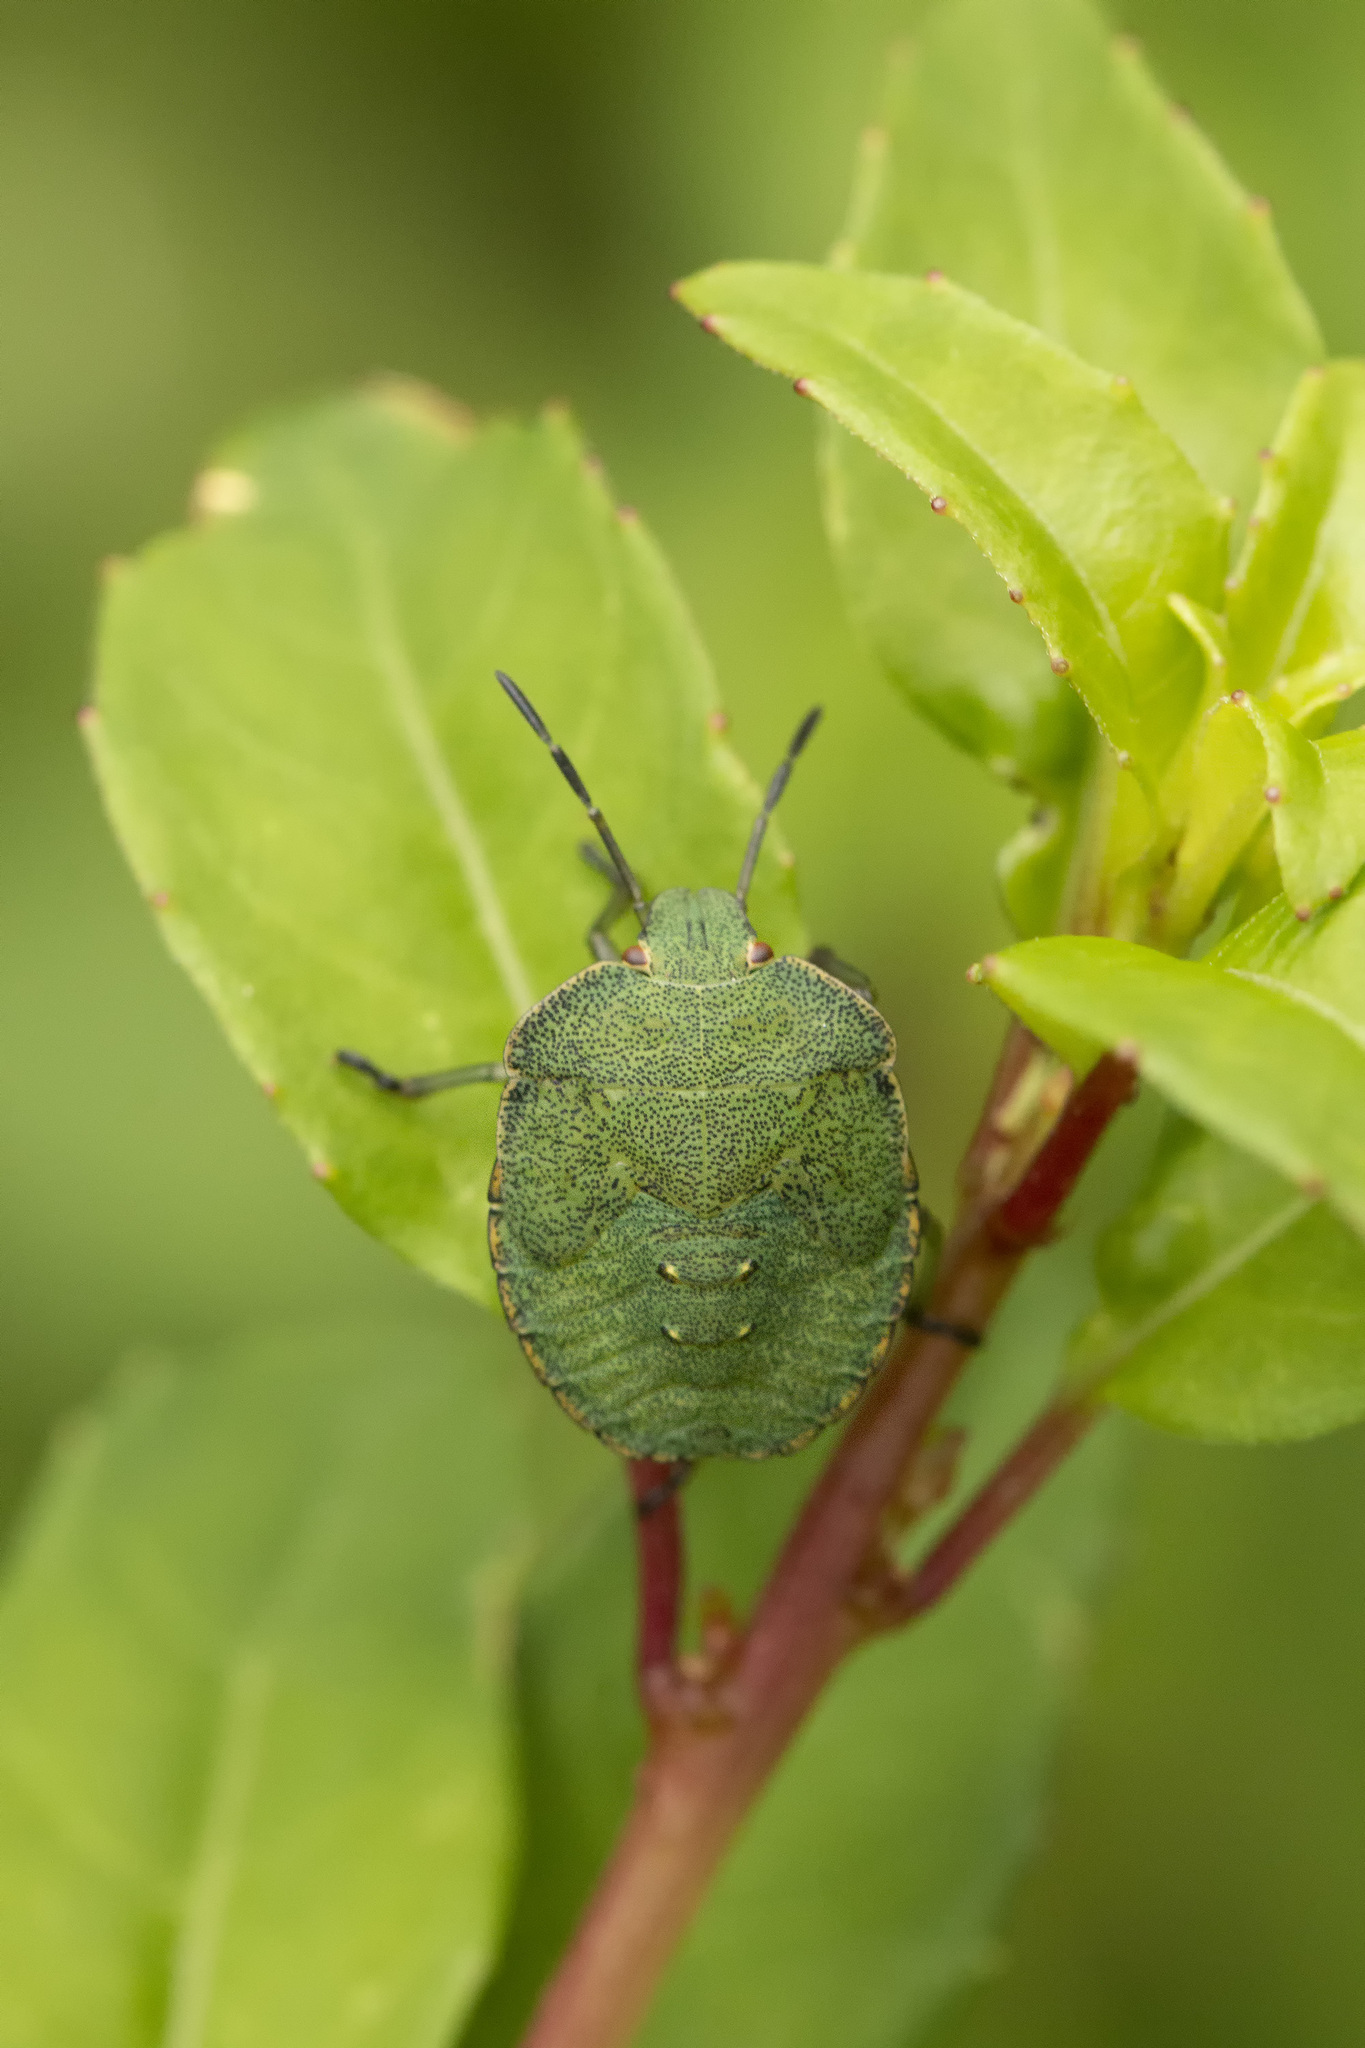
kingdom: Animalia
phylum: Arthropoda
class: Insecta
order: Hemiptera
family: Pentatomidae
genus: Palomena
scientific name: Palomena prasina
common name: Green shieldbug
